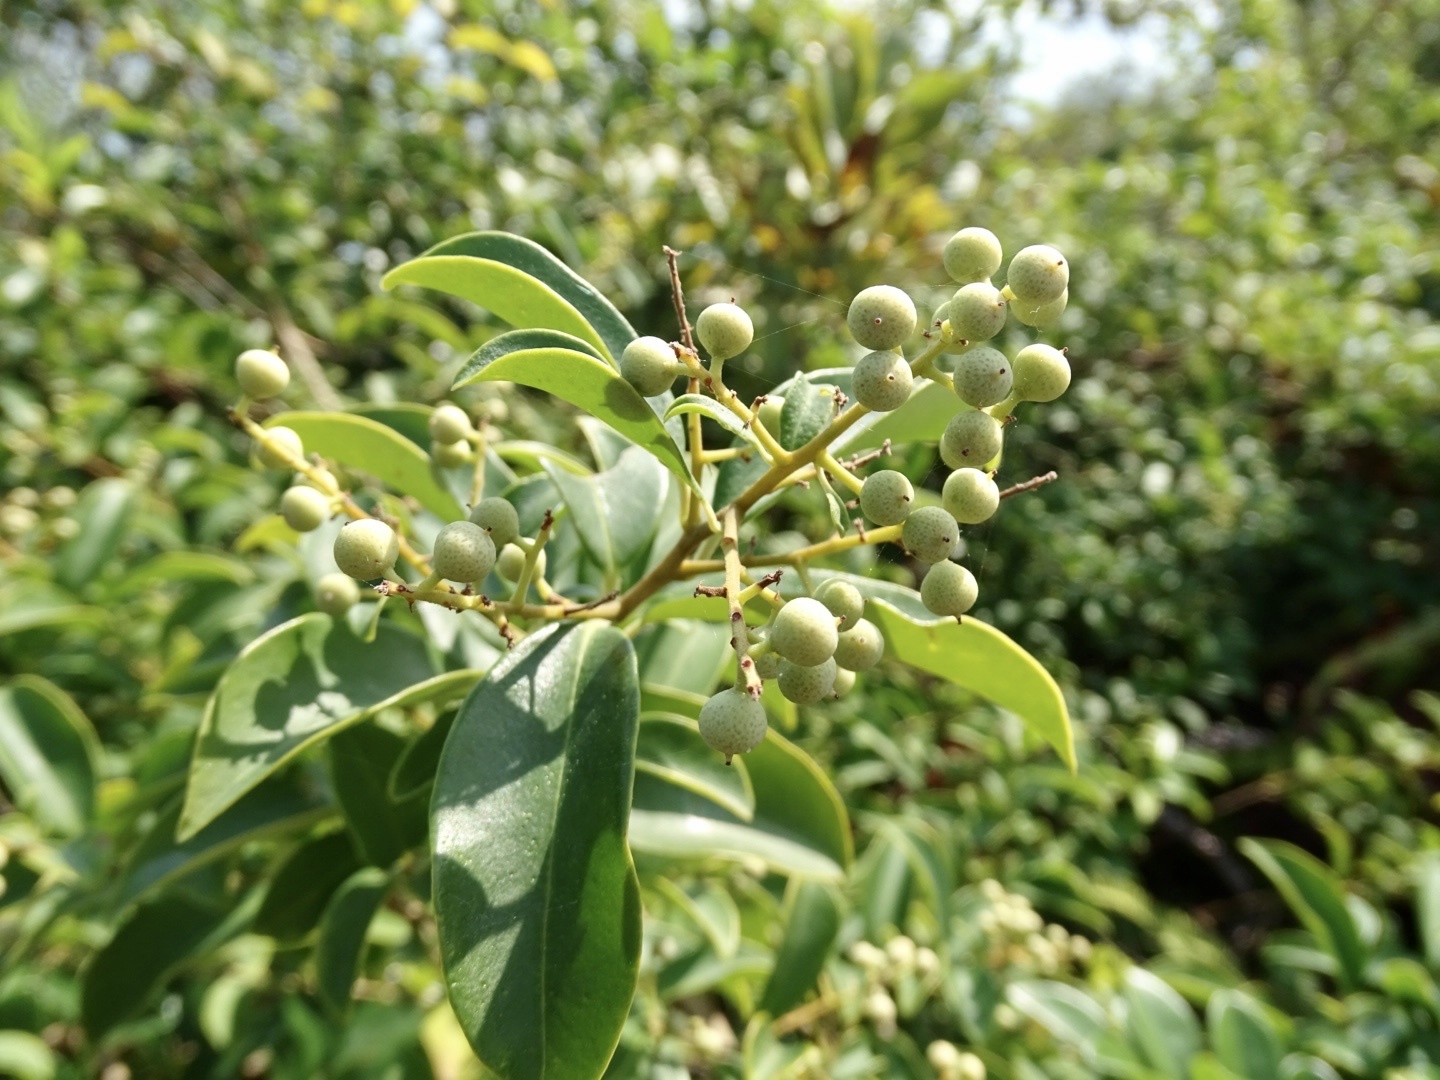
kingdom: Plantae
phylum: Tracheophyta
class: Magnoliopsida
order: Ericales
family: Primulaceae
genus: Embelia
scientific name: Embelia ribes
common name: Vidanga
